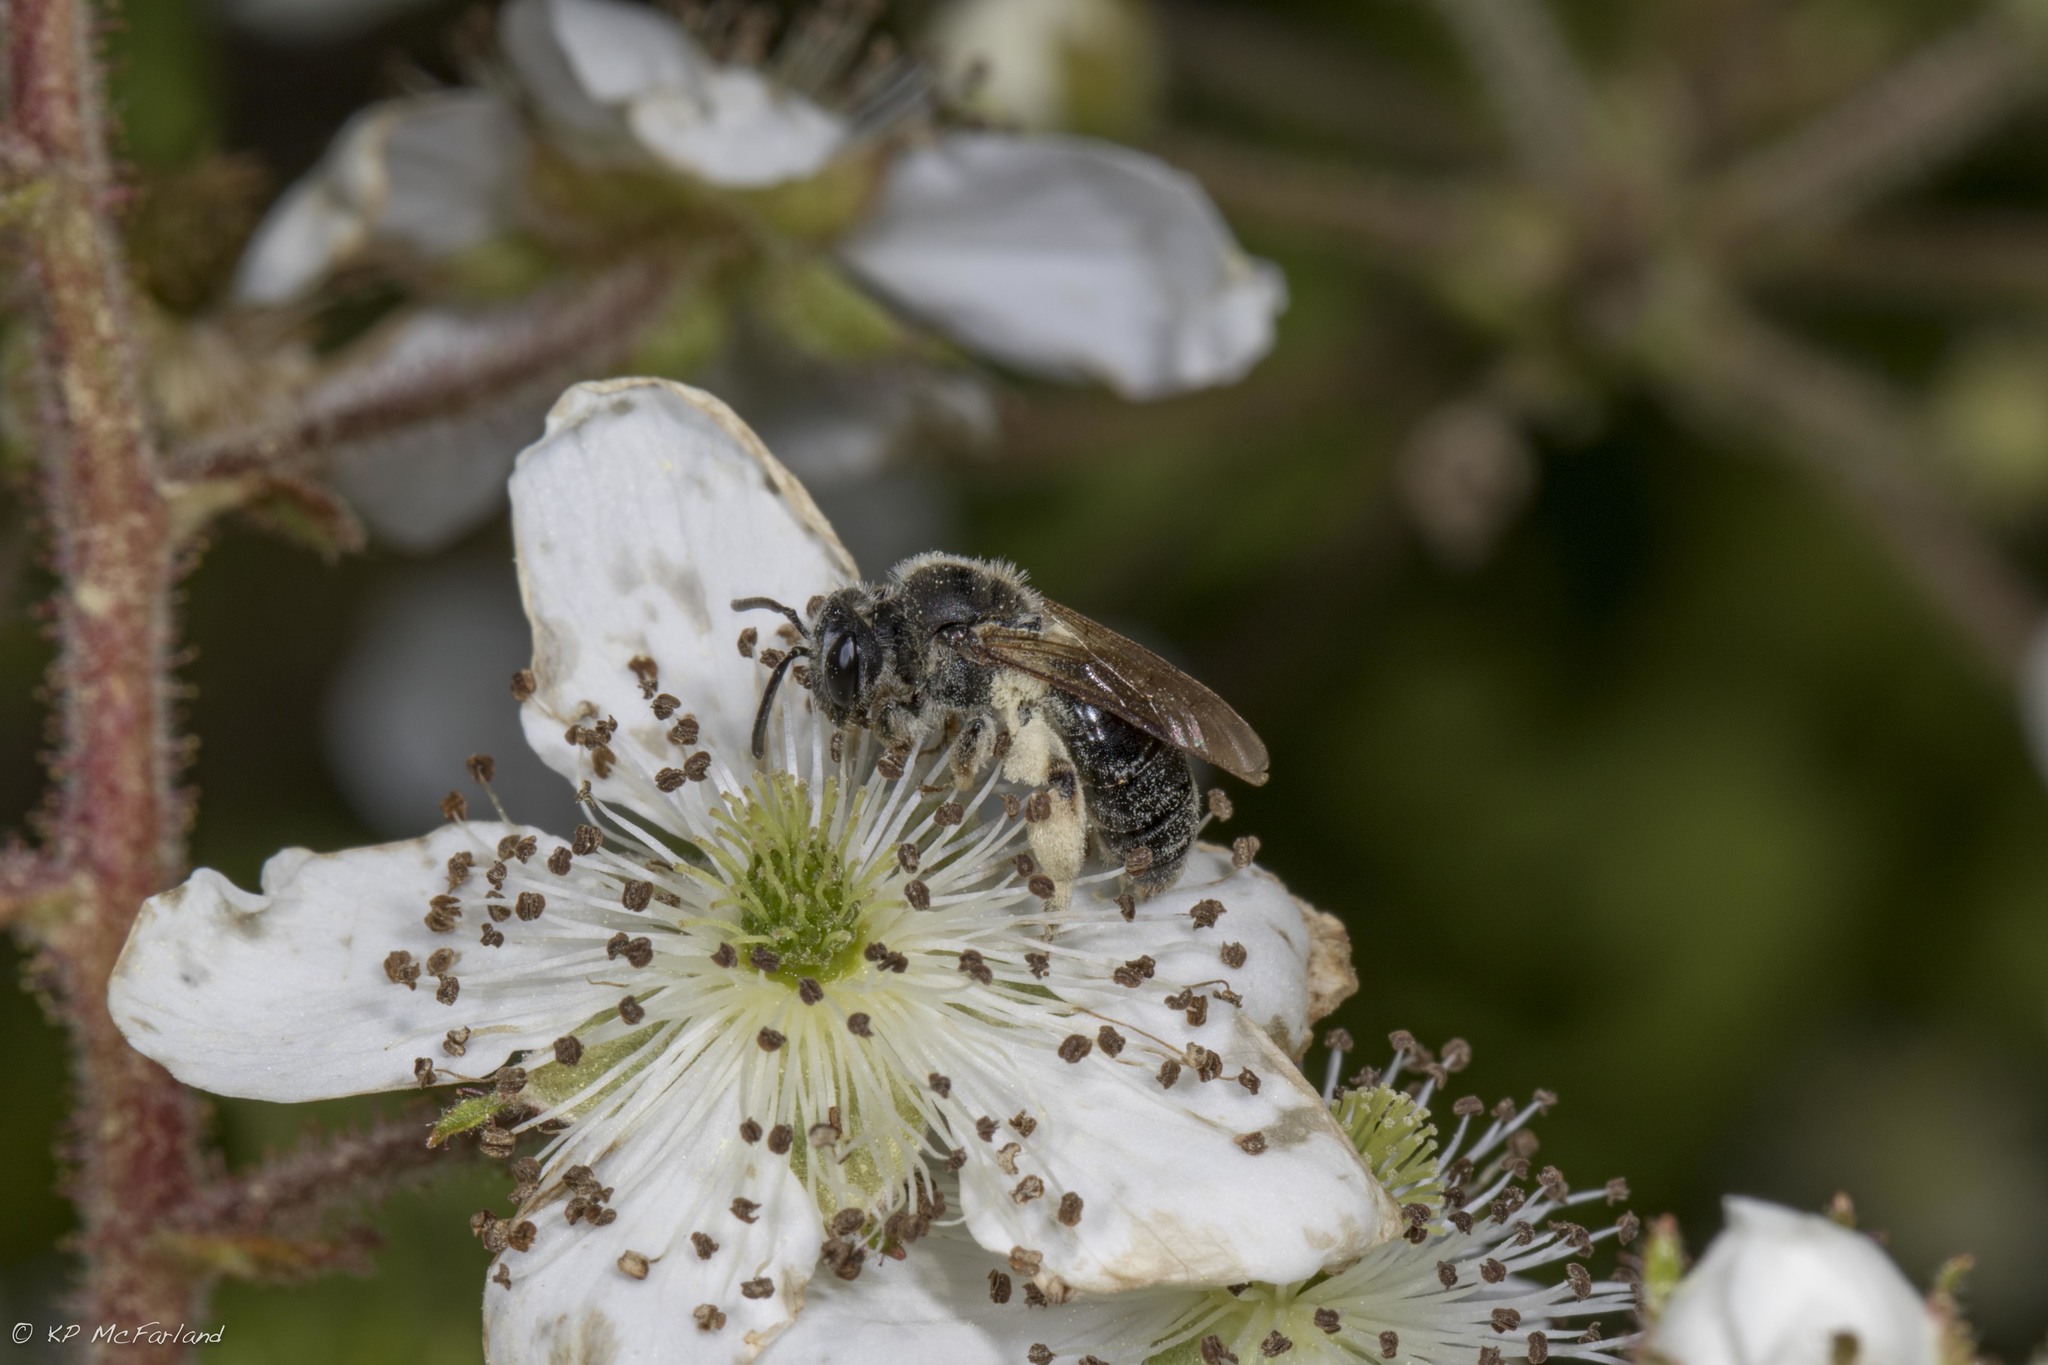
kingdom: Animalia
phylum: Arthropoda
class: Insecta
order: Hymenoptera
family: Andrenidae
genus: Andrena
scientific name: Andrena
